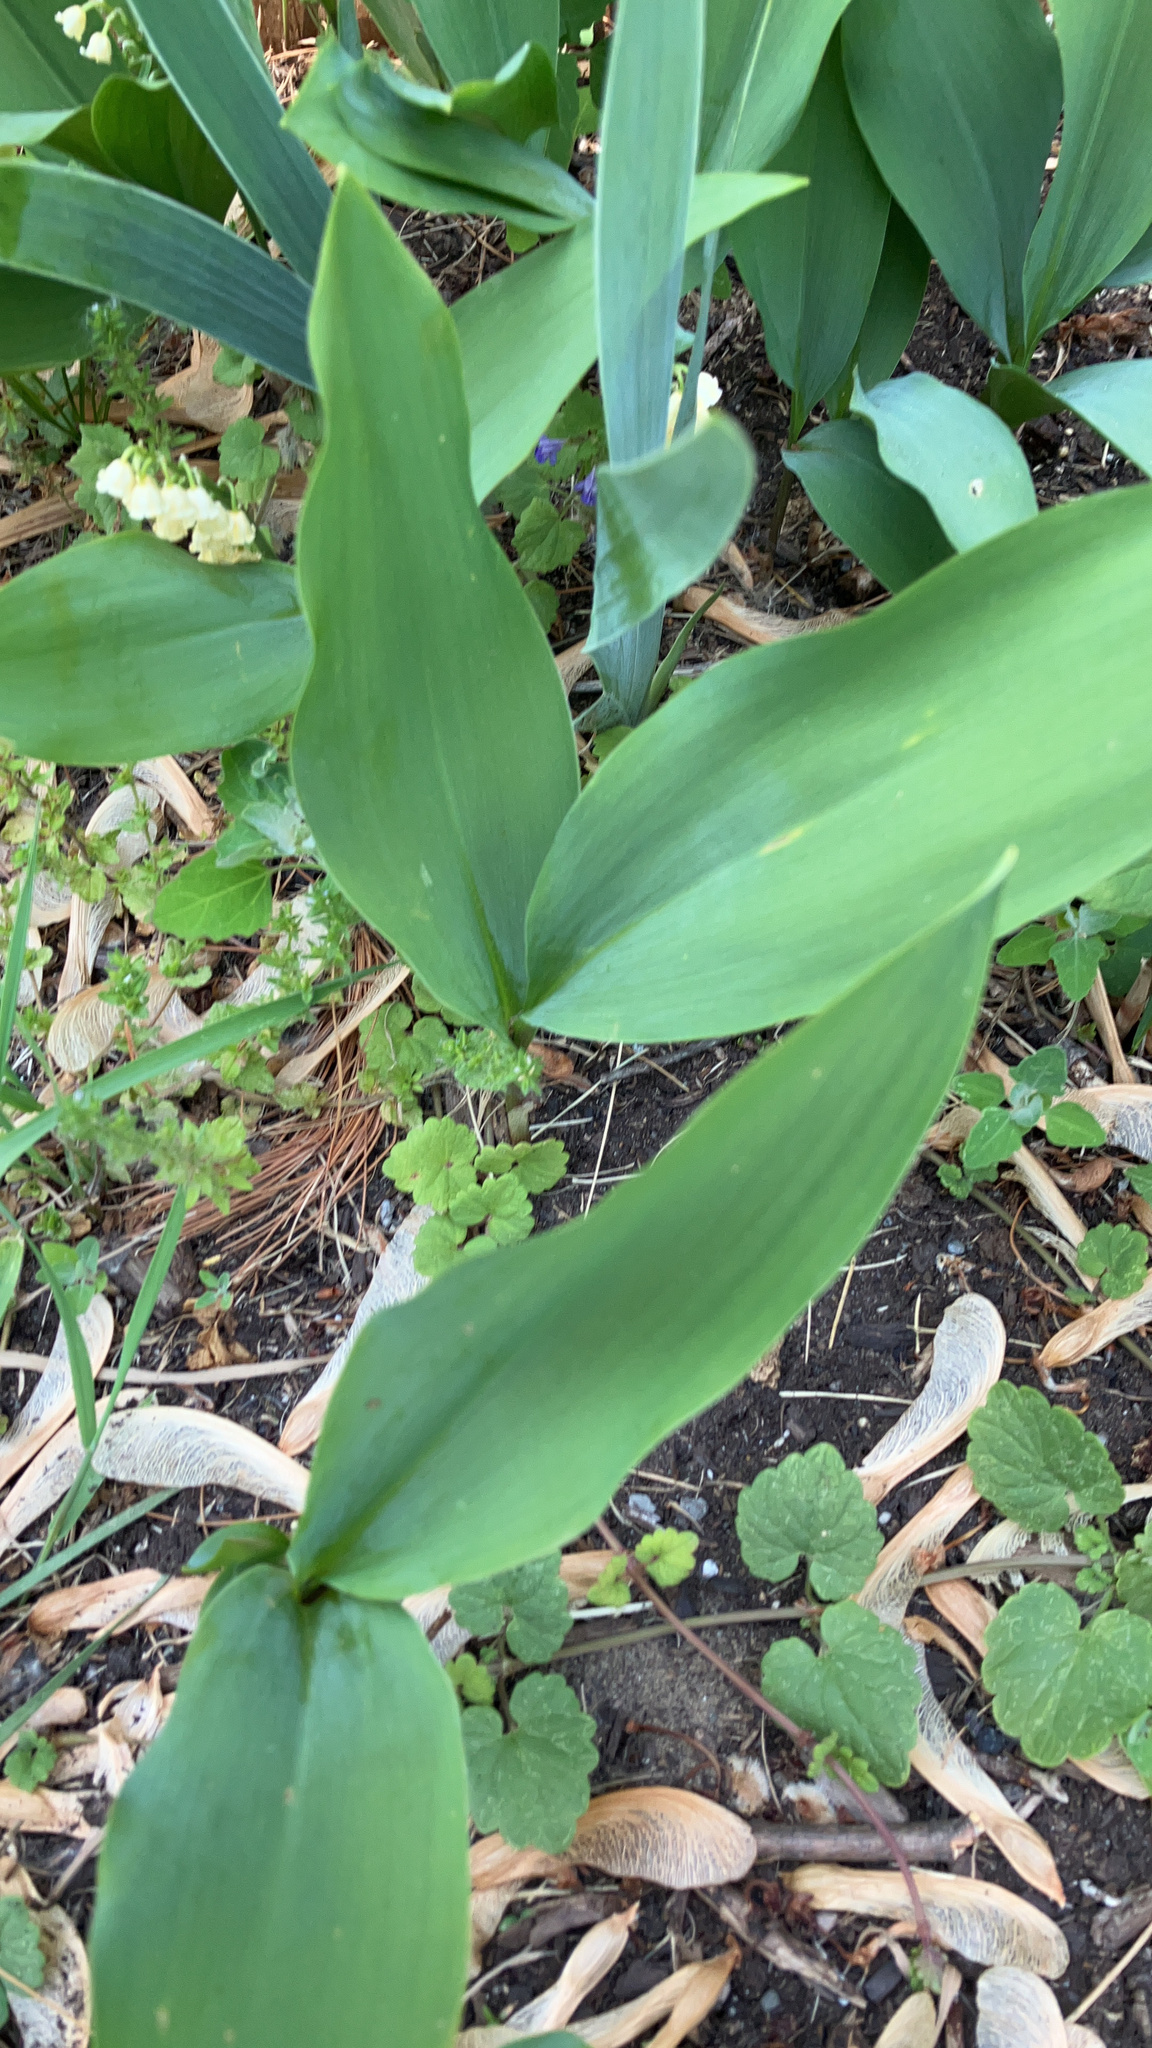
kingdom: Plantae
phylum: Tracheophyta
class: Liliopsida
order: Asparagales
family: Asparagaceae
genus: Convallaria
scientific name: Convallaria majalis
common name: Lily-of-the-valley
